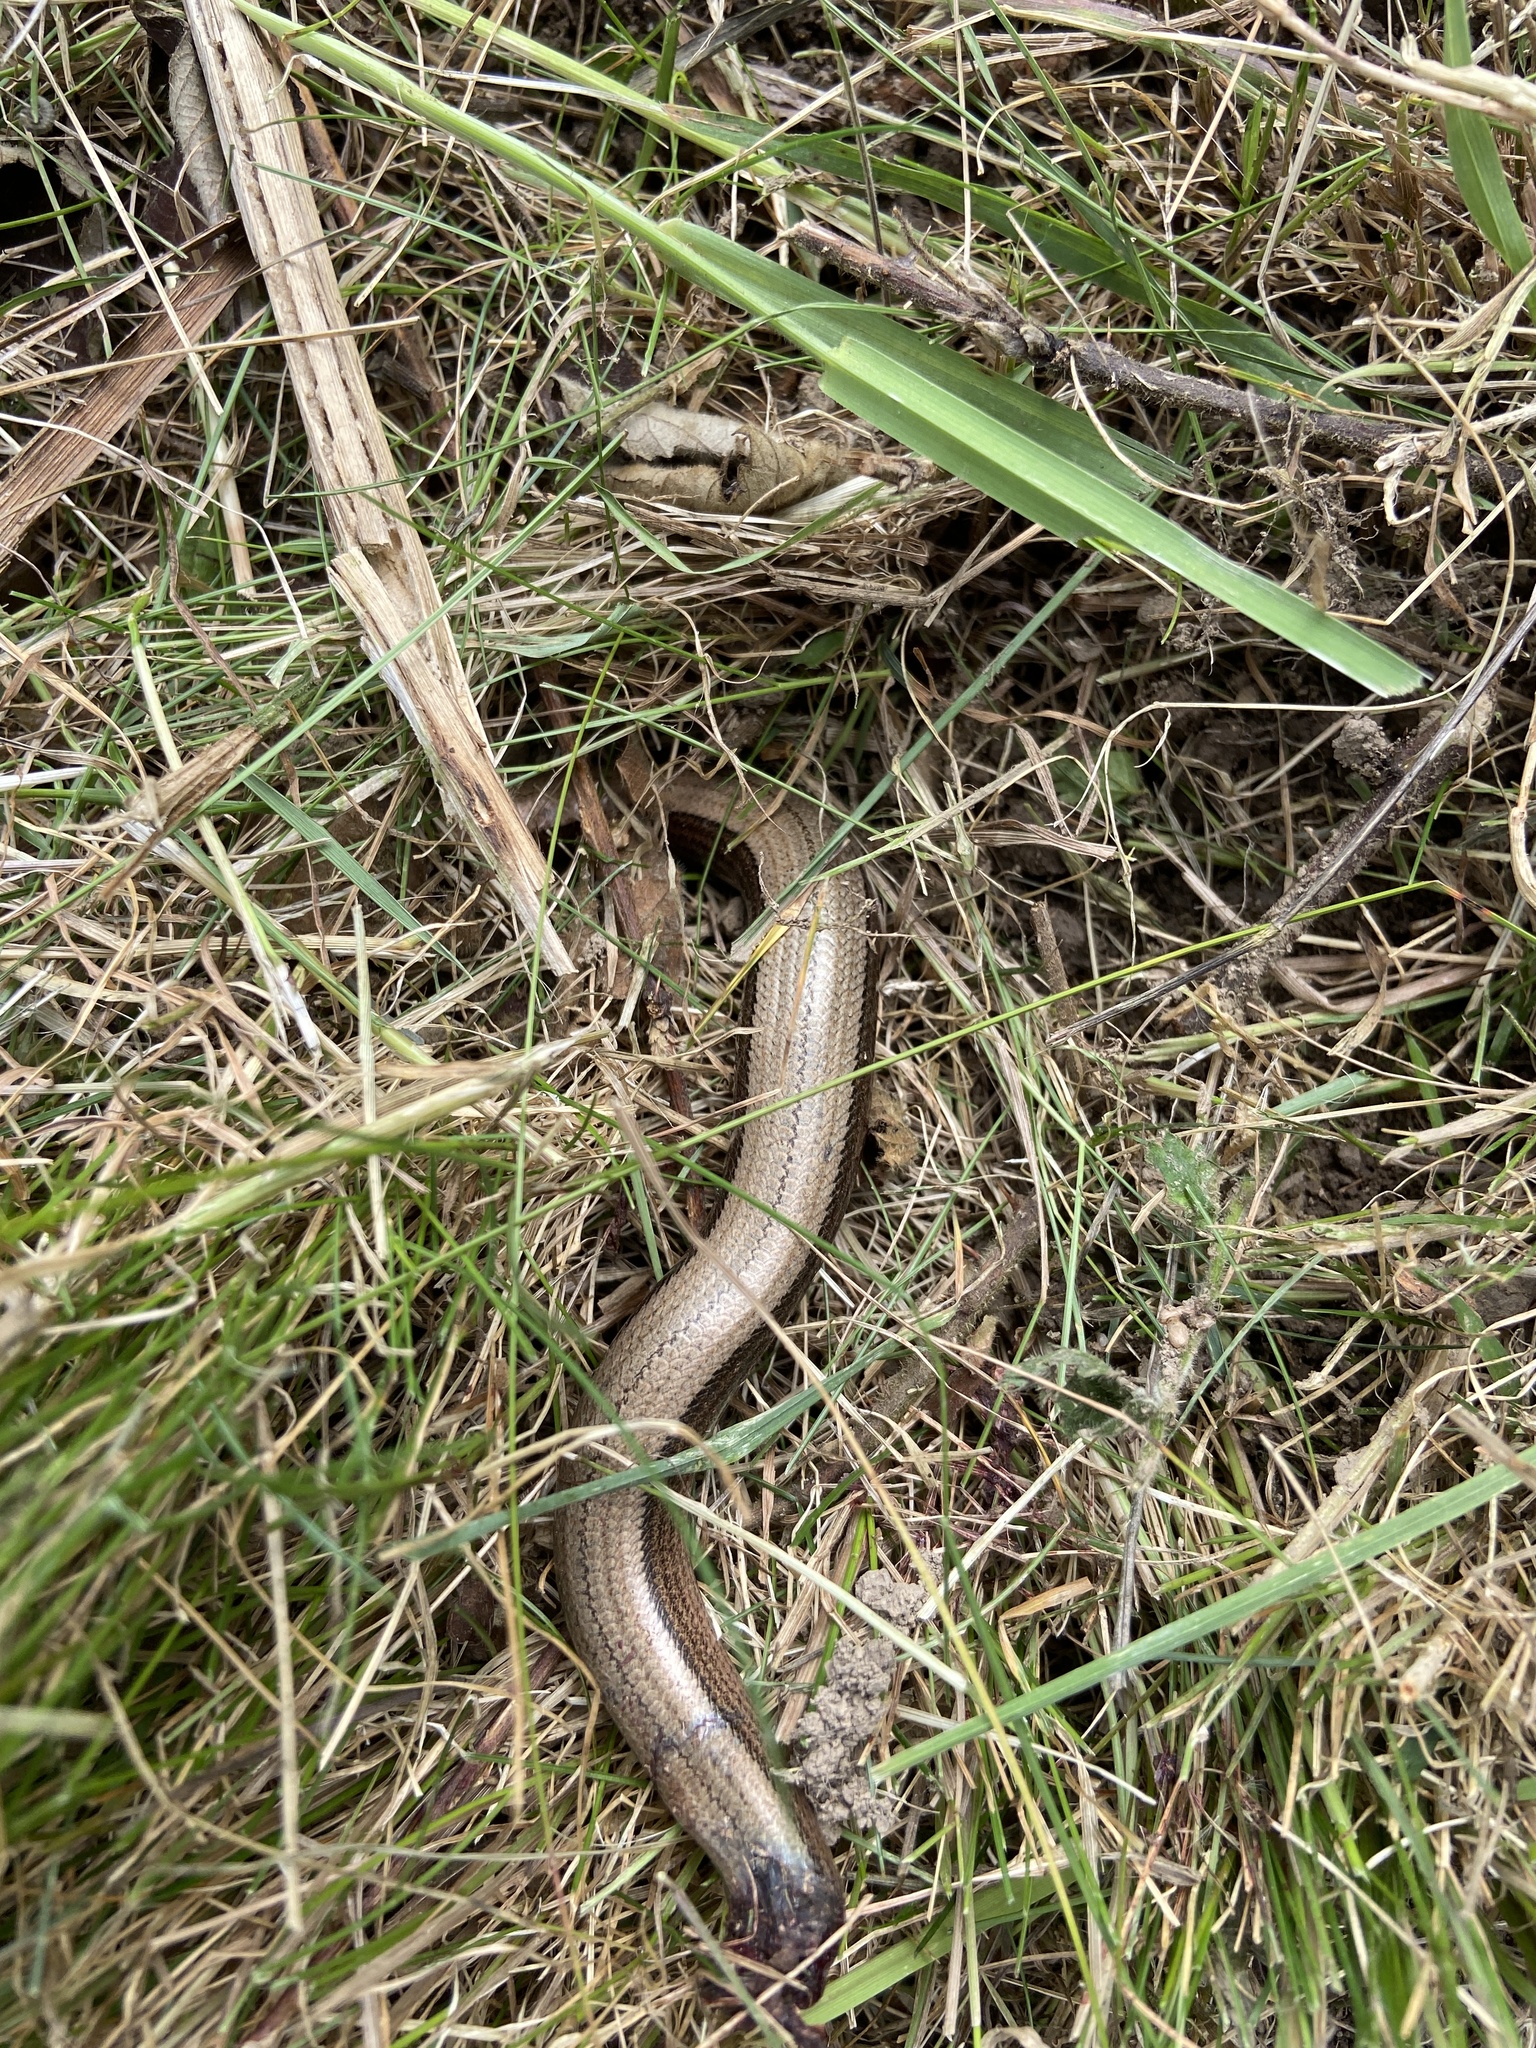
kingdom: Animalia
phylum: Chordata
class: Squamata
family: Anguidae
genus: Anguis
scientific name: Anguis fragilis
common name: Slow worm
